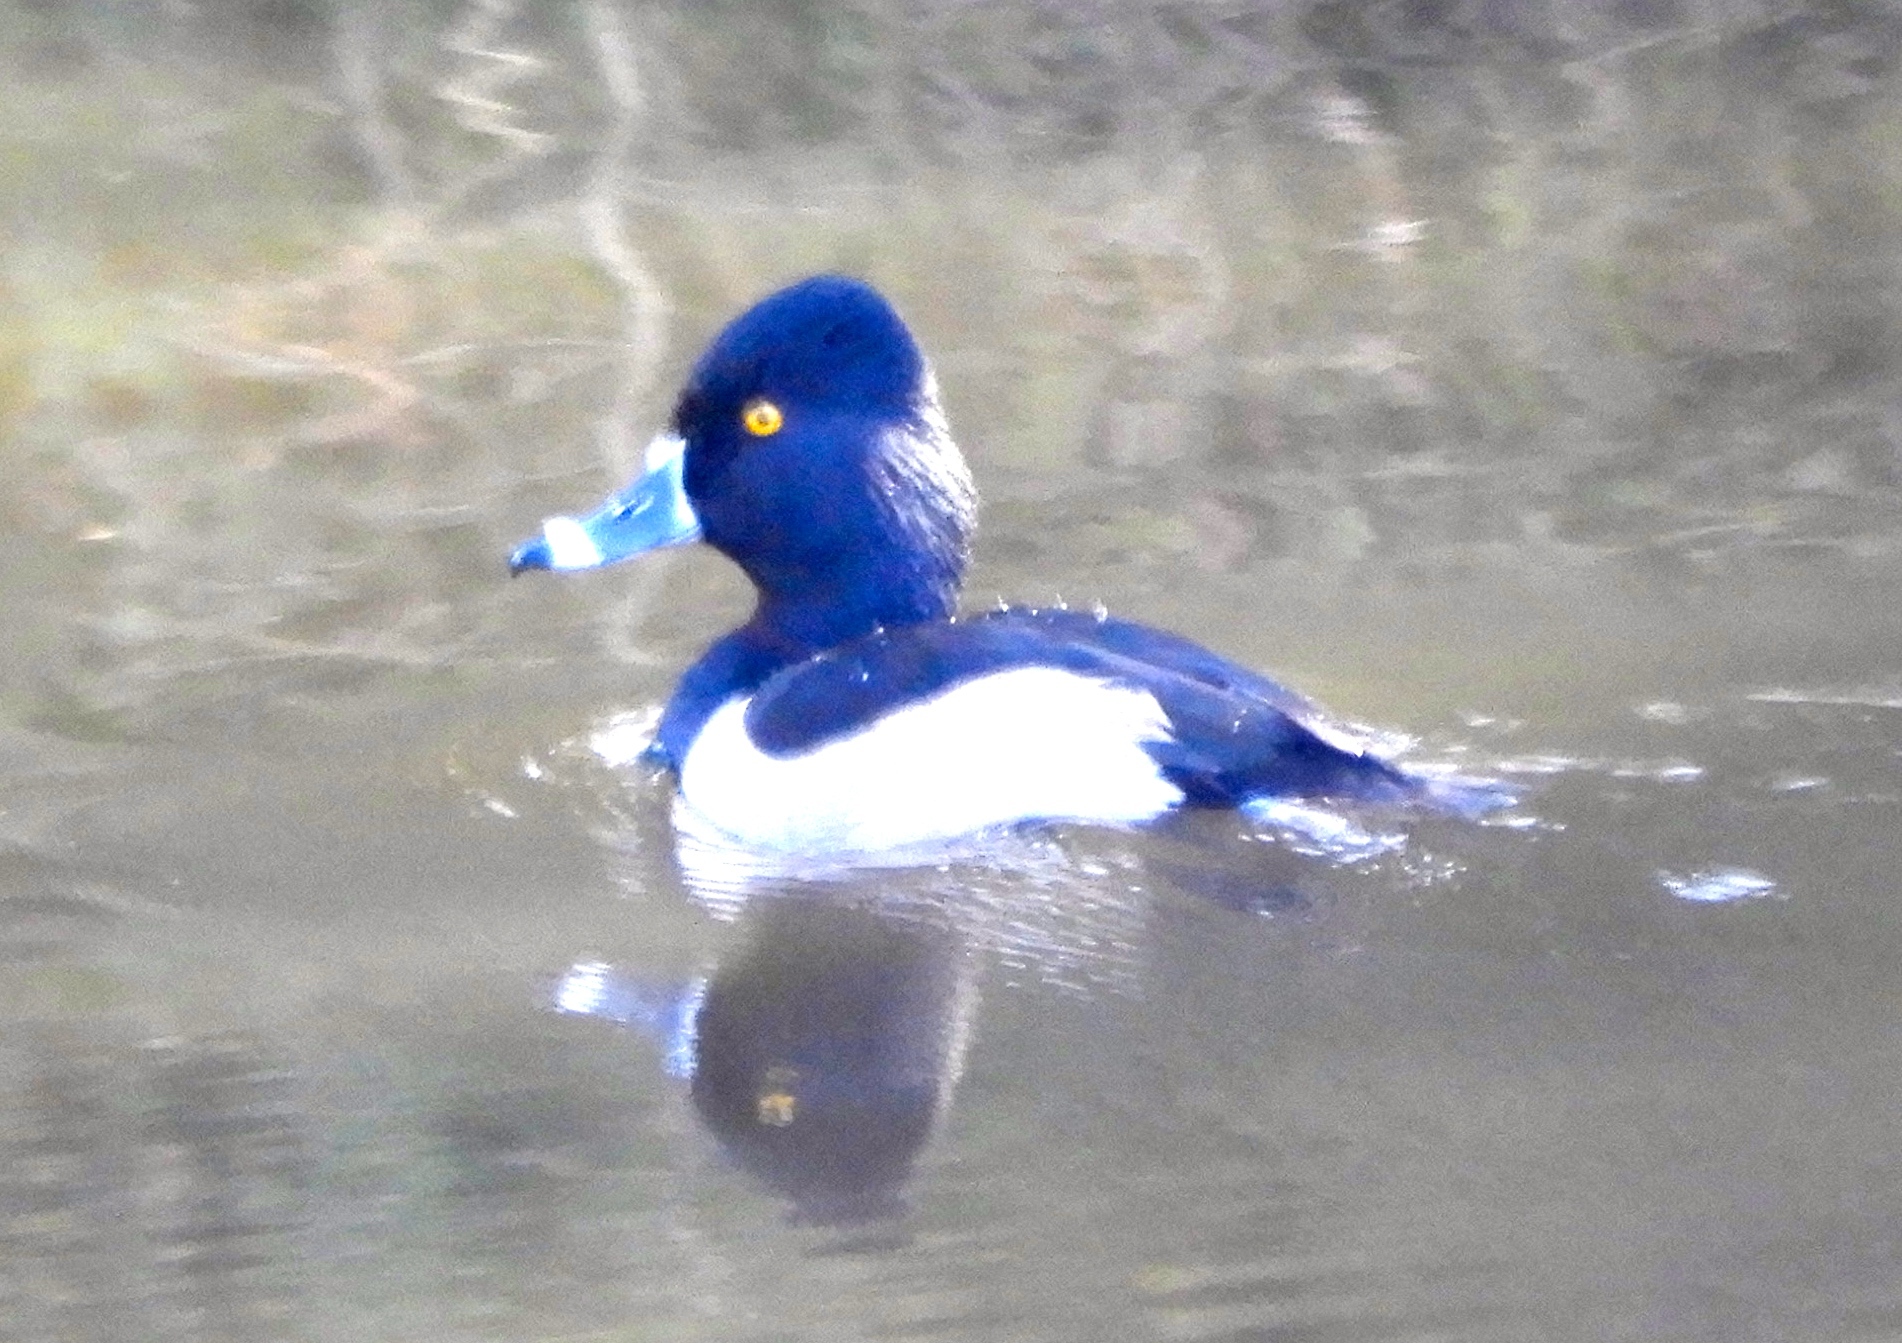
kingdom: Animalia
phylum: Chordata
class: Aves
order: Anseriformes
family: Anatidae
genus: Aythya
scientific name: Aythya collaris
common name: Ring-necked duck
